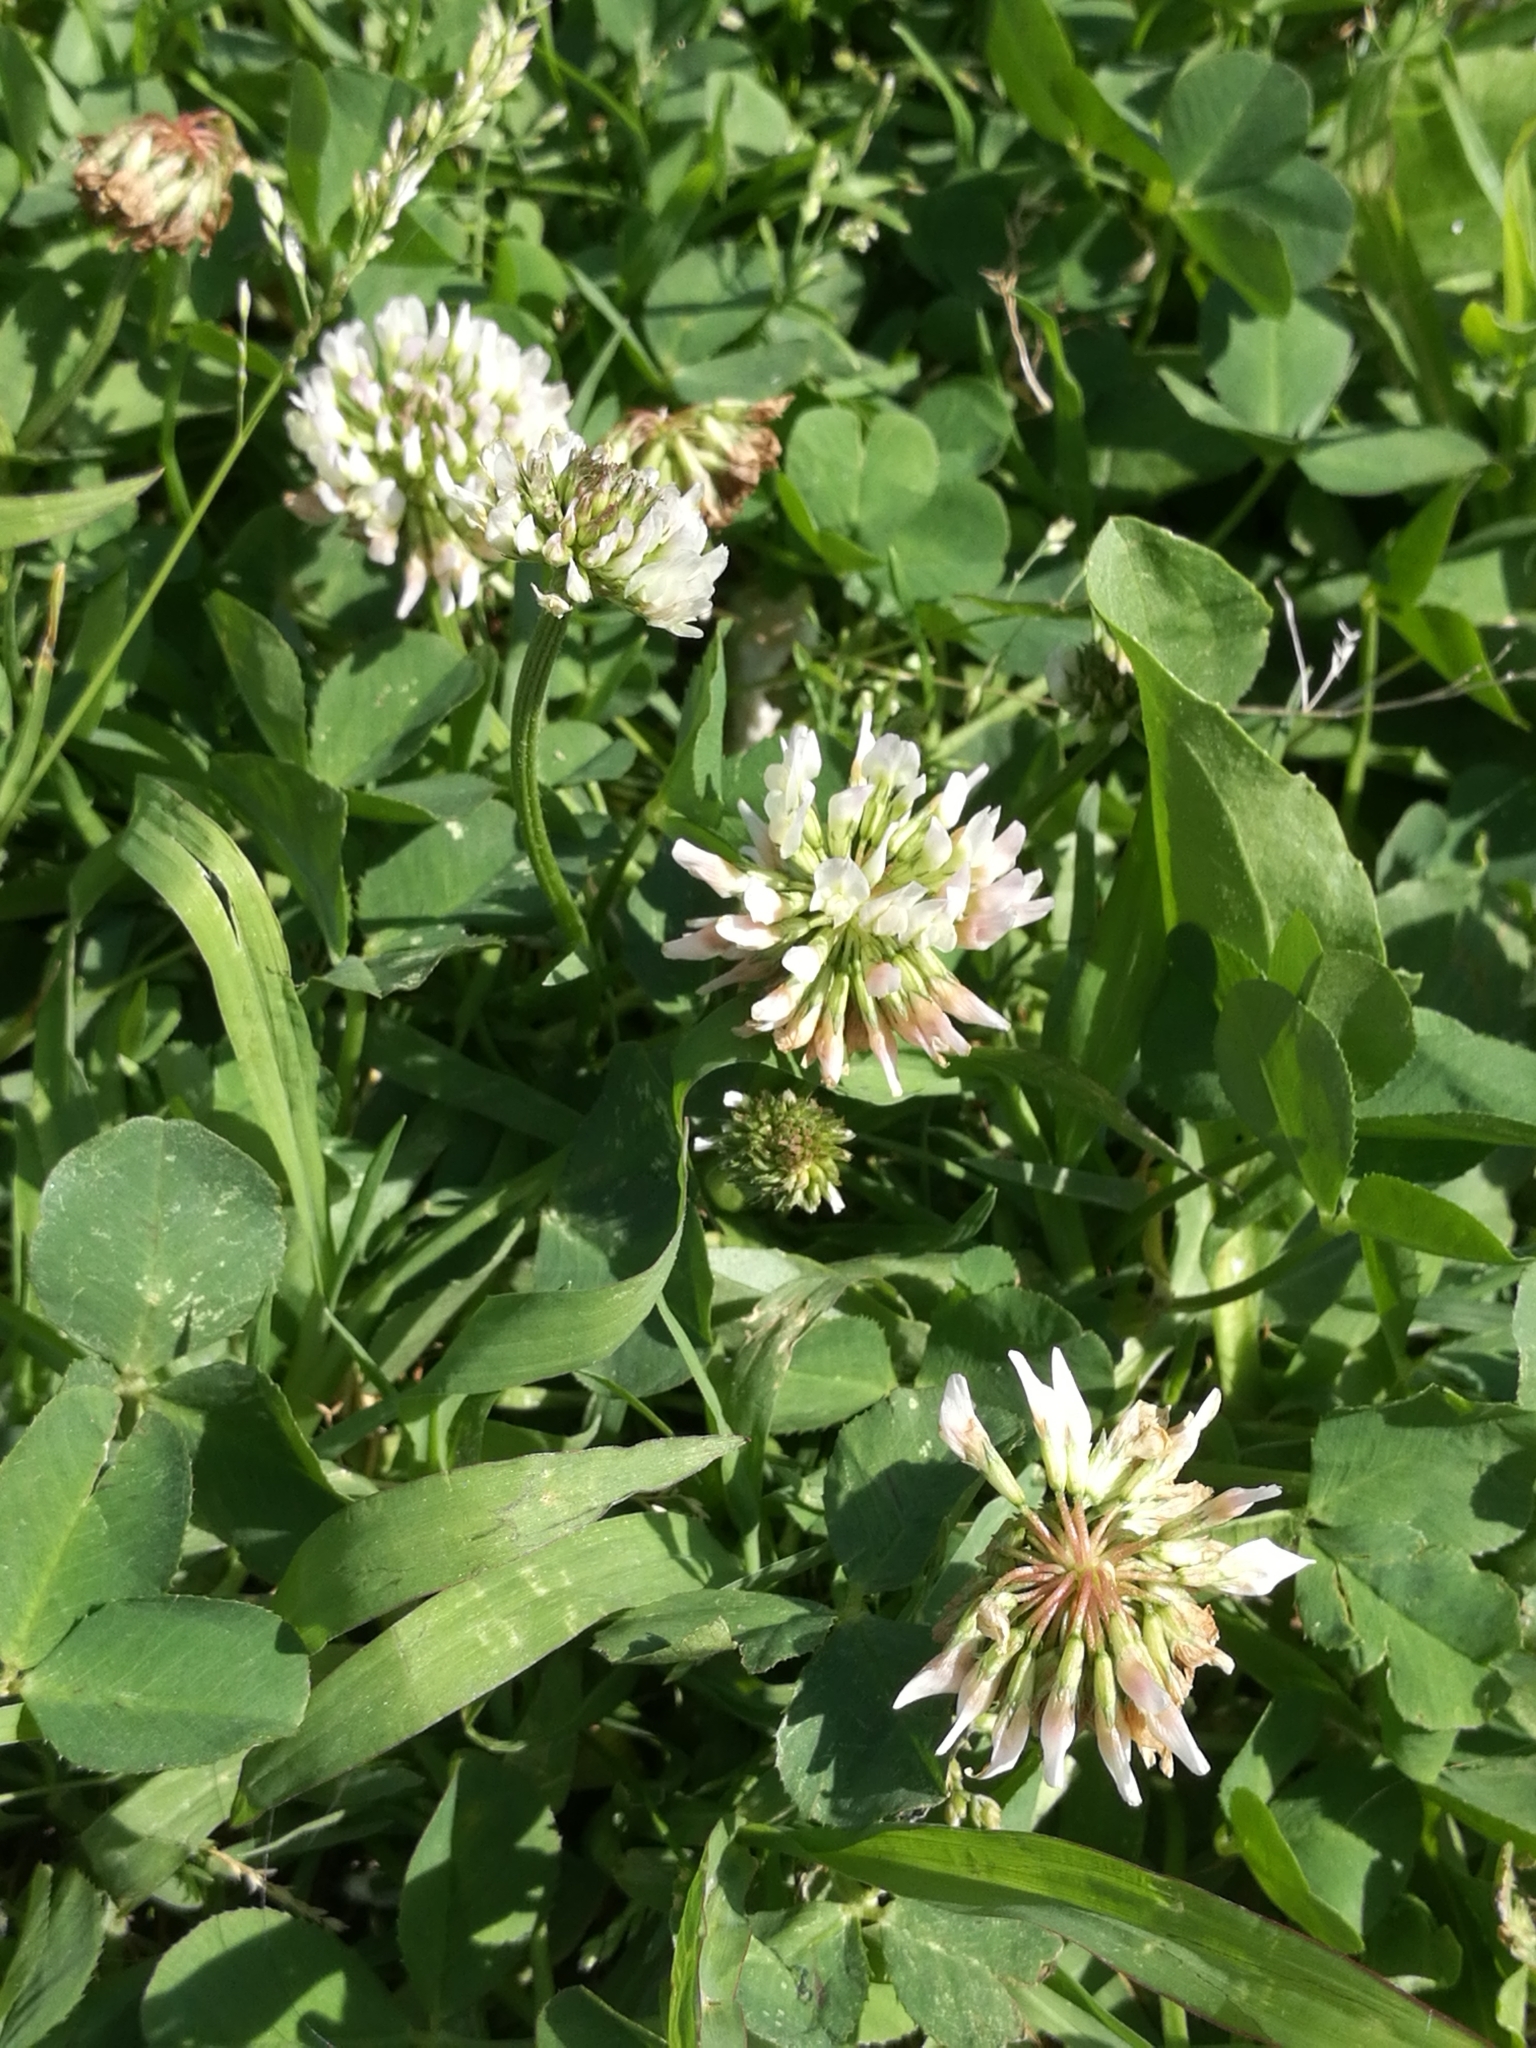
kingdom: Plantae
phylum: Tracheophyta
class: Magnoliopsida
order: Fabales
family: Fabaceae
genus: Trifolium
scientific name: Trifolium repens
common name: White clover
